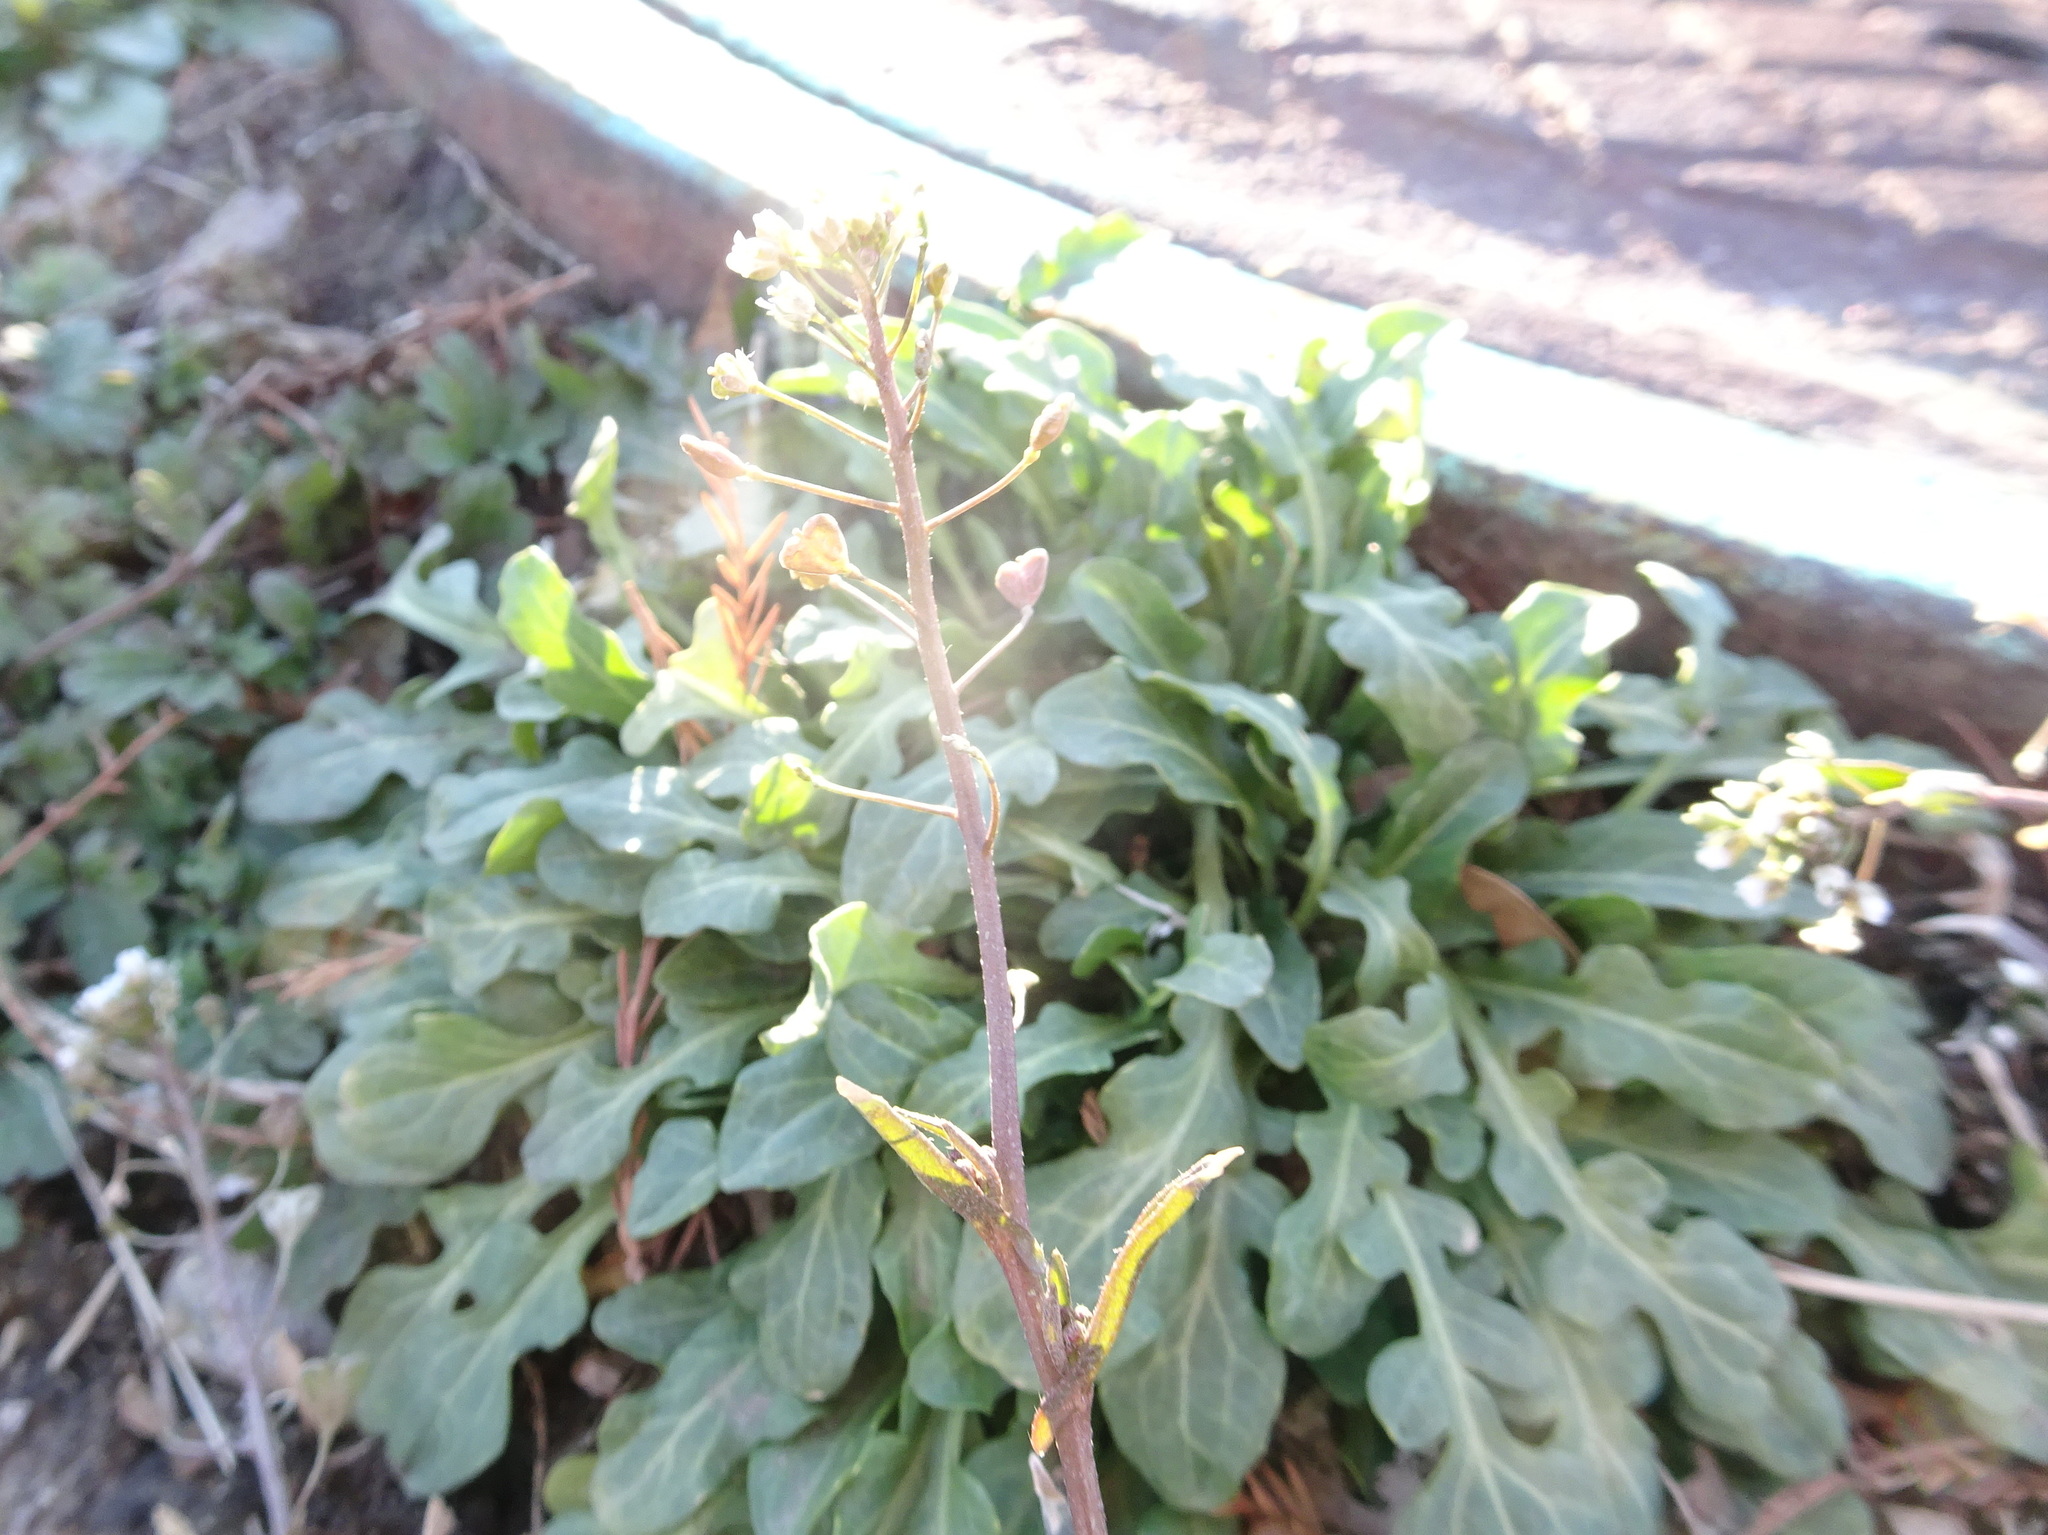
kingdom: Plantae
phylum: Tracheophyta
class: Magnoliopsida
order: Brassicales
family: Brassicaceae
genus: Capsella
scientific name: Capsella bursa-pastoris
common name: Shepherd's purse
